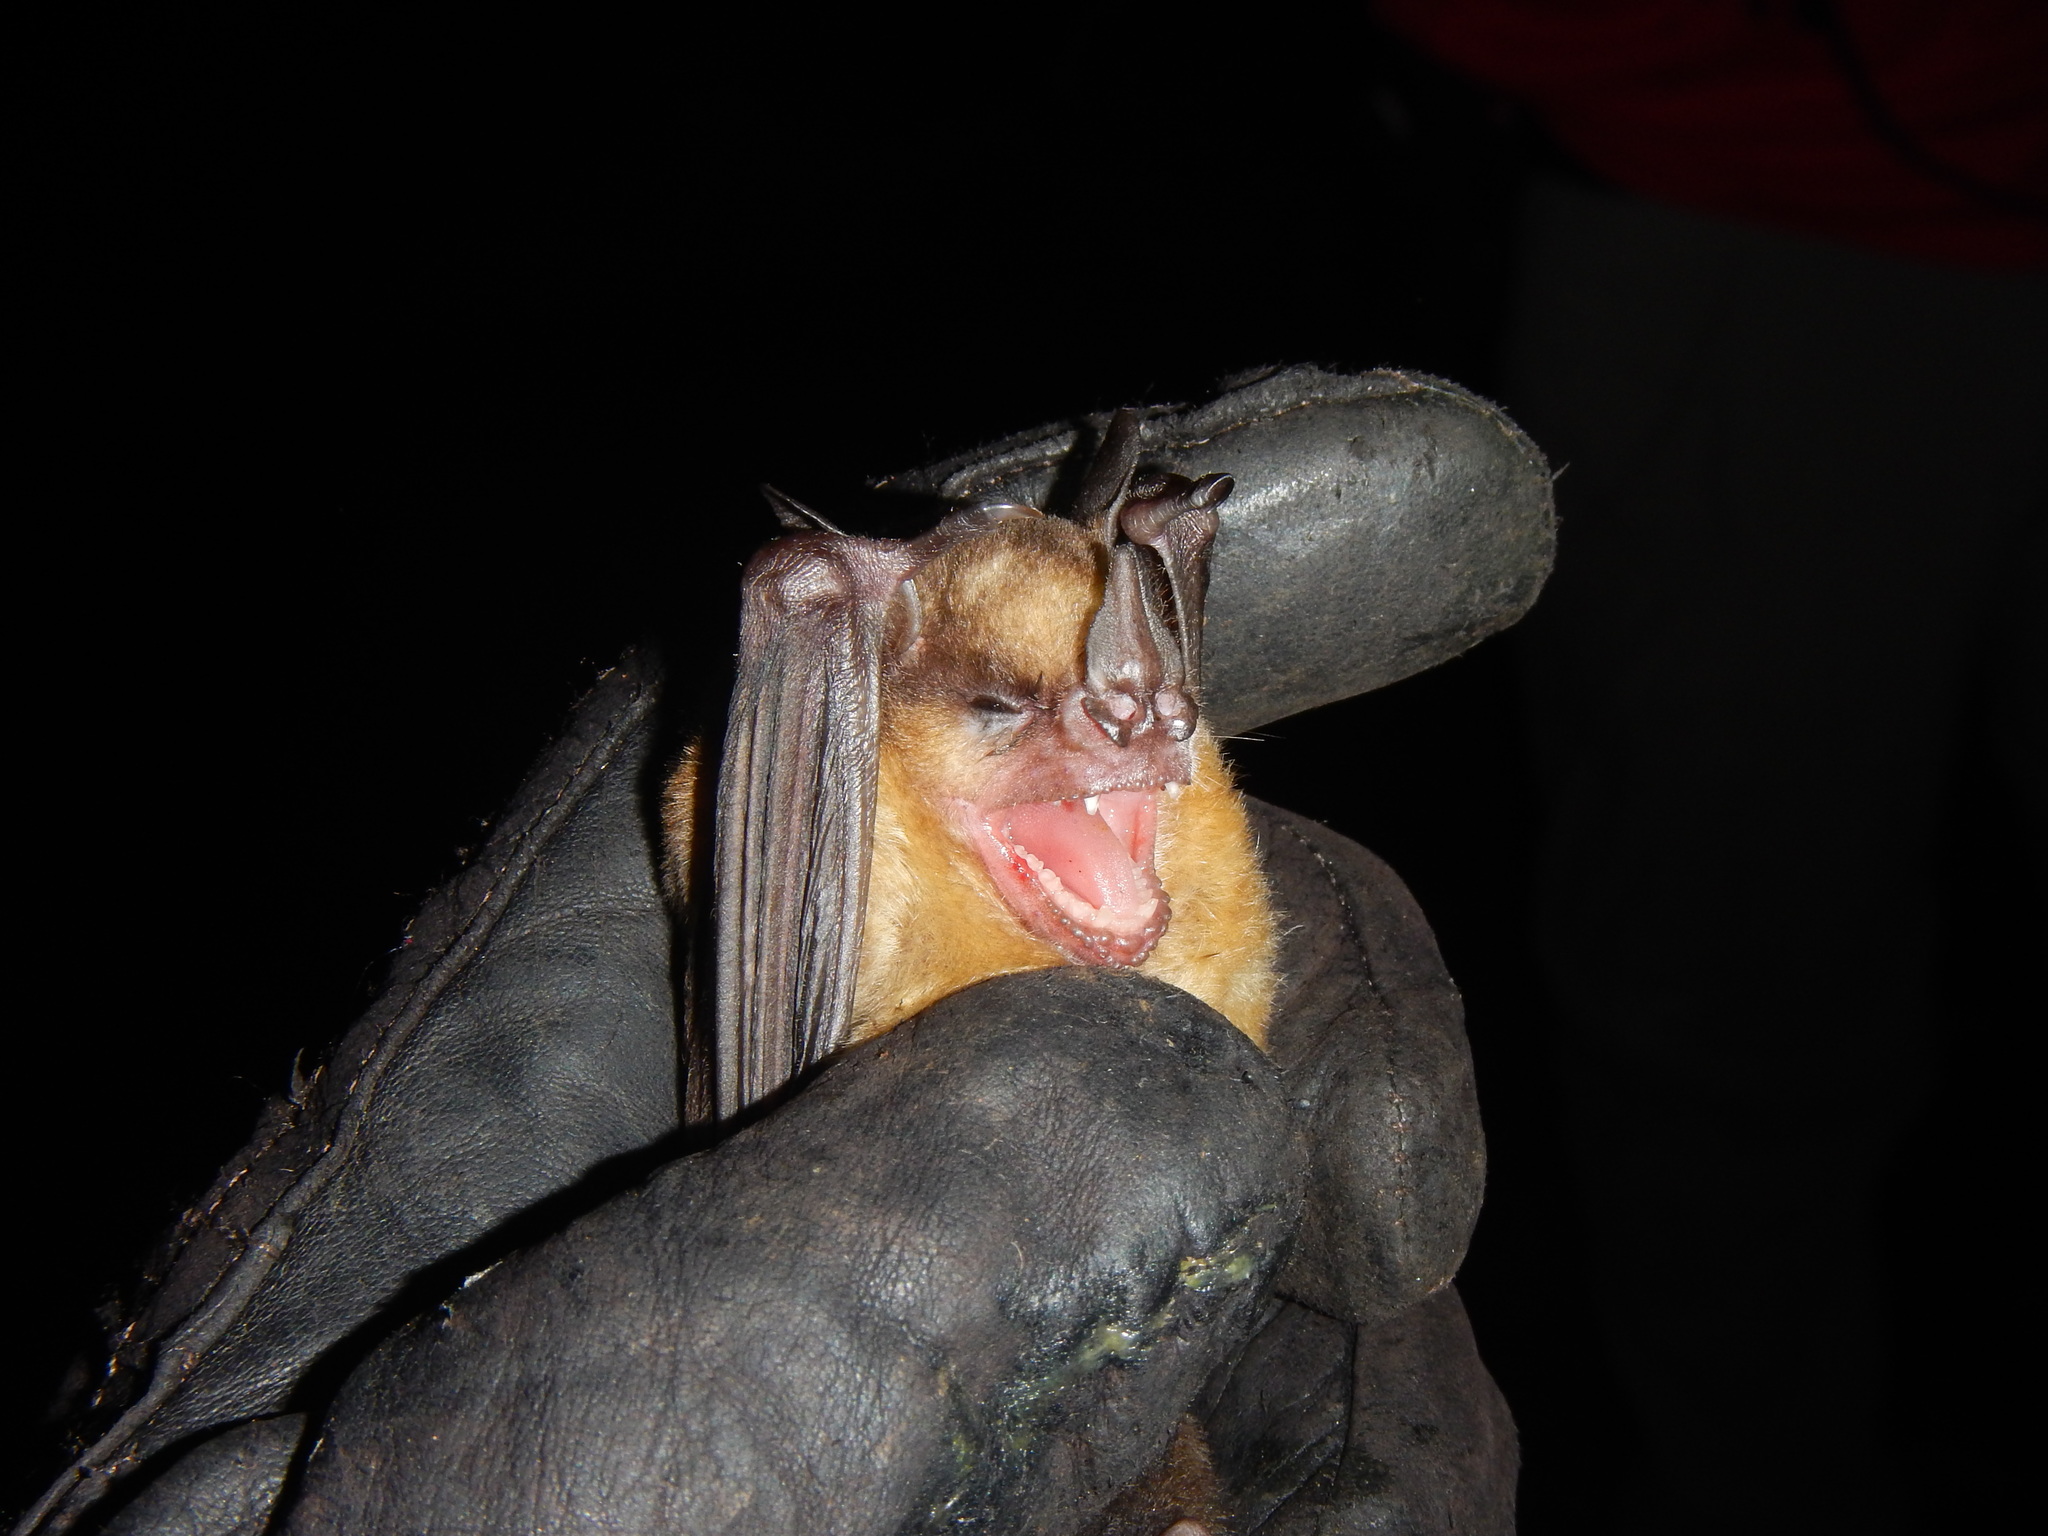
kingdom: Animalia
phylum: Chordata
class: Mammalia
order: Chiroptera
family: Phyllostomidae
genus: Sturnira
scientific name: Sturnira tildae
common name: Tilda's yellow-shouldered bat
